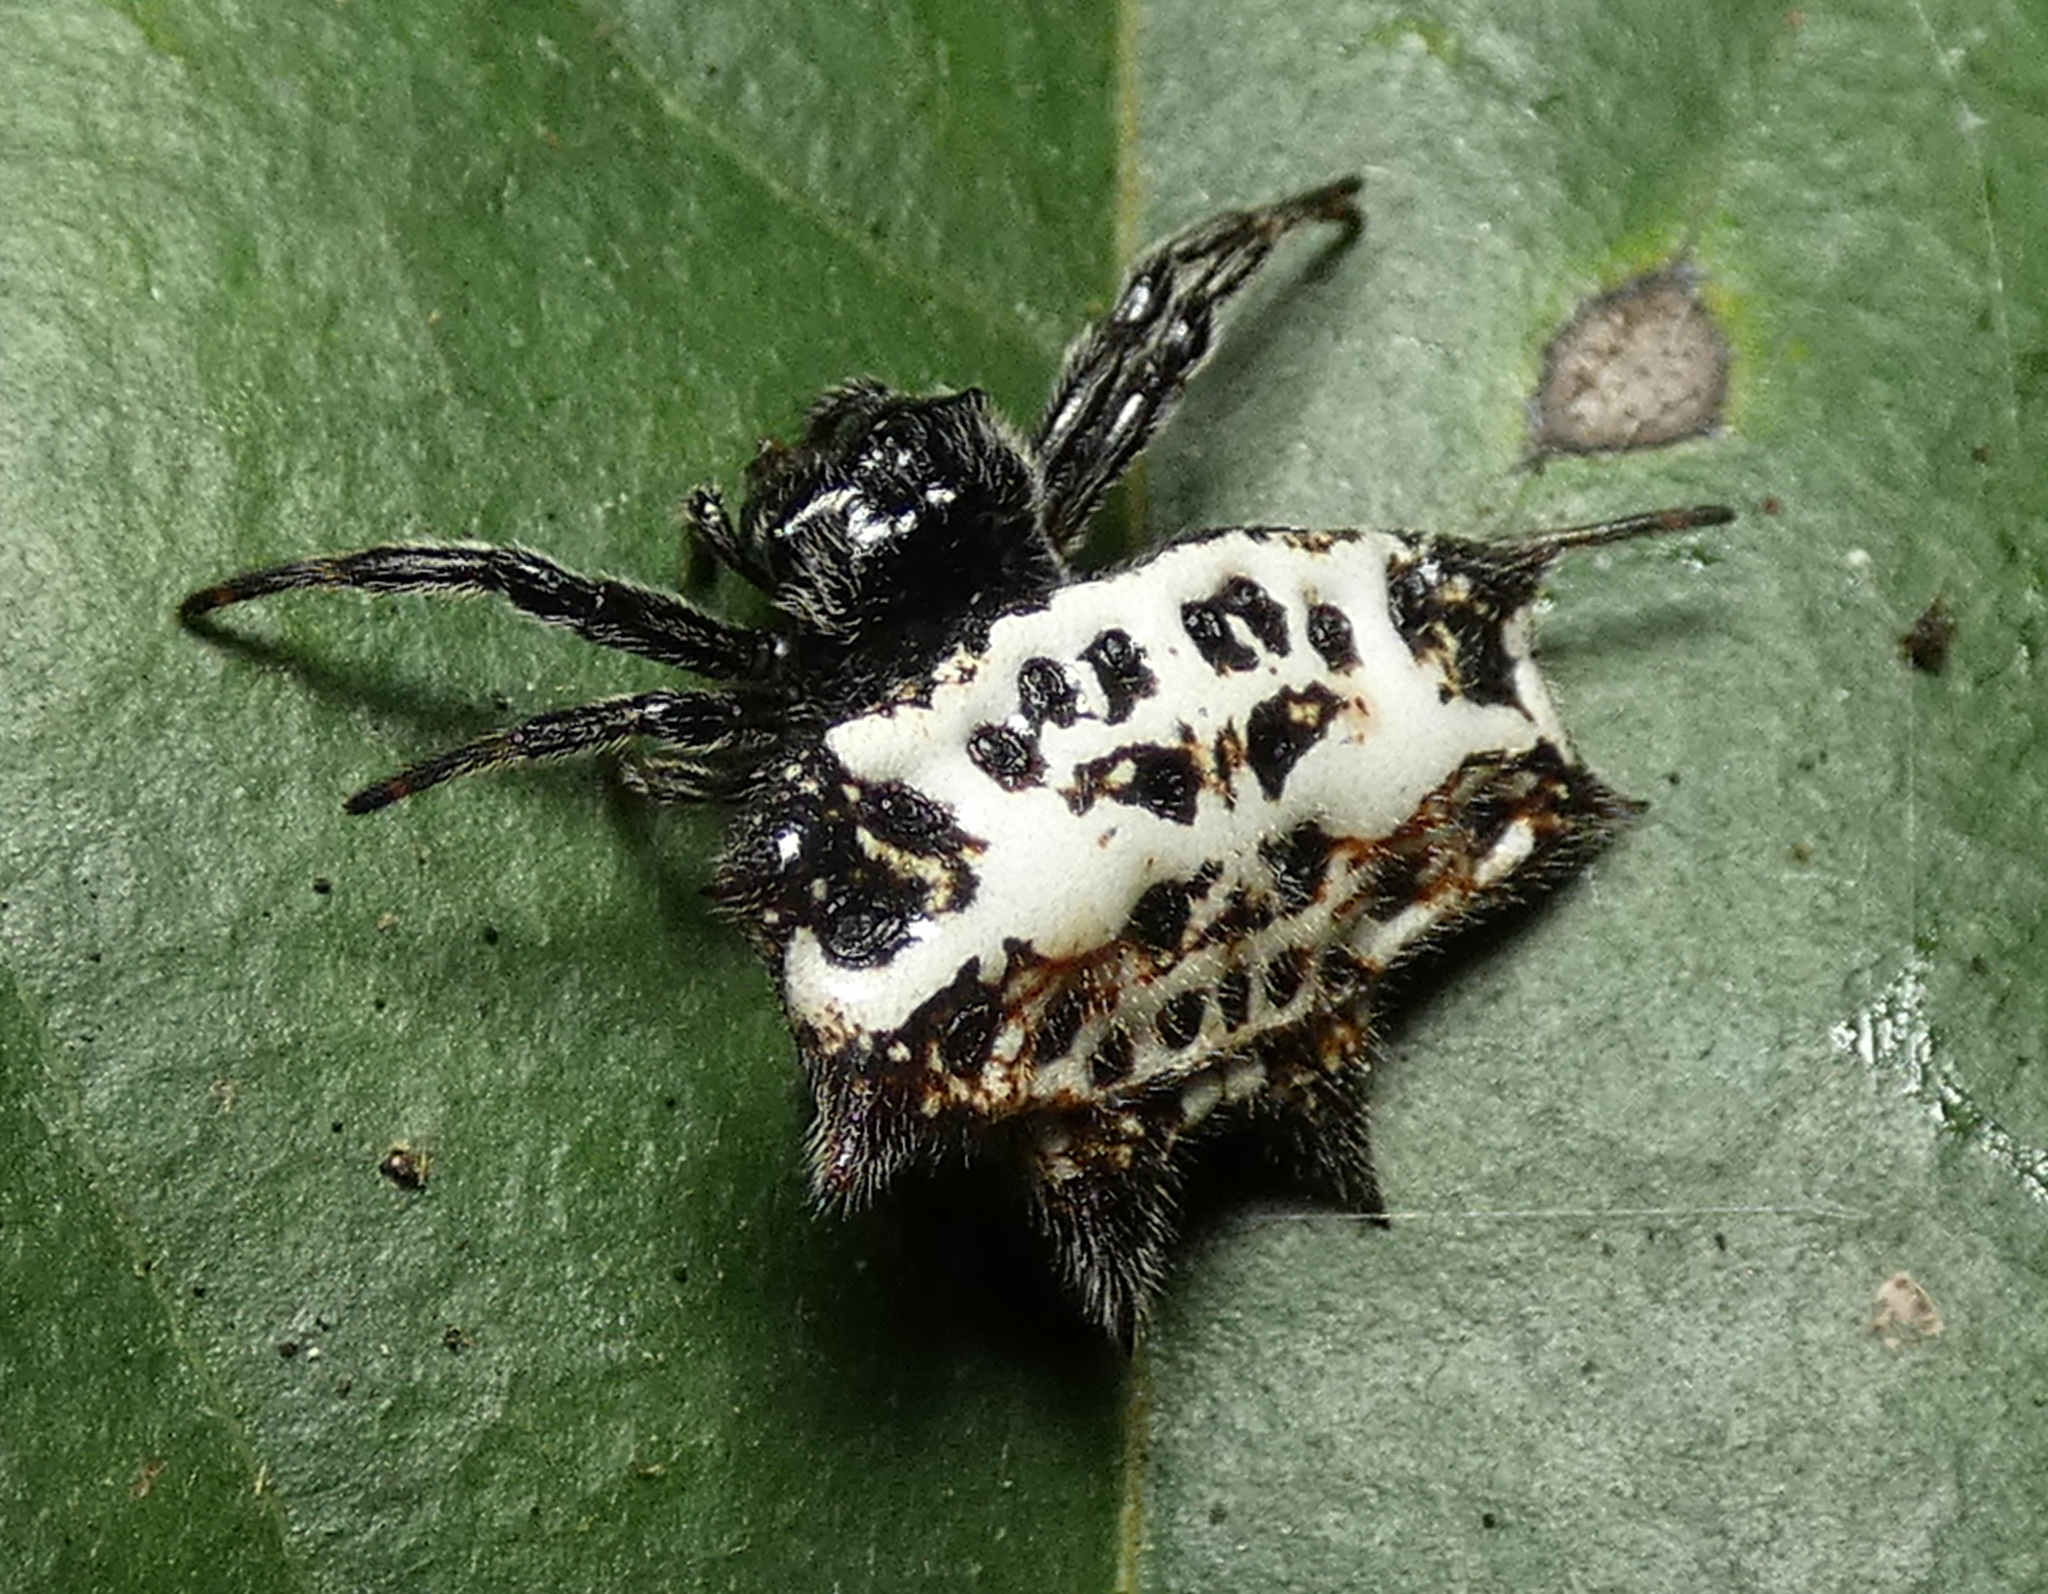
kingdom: Animalia
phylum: Arthropoda
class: Arachnida
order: Araneae
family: Araneidae
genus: Gasteracantha
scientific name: Gasteracantha cancriformis
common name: Orb weavers
